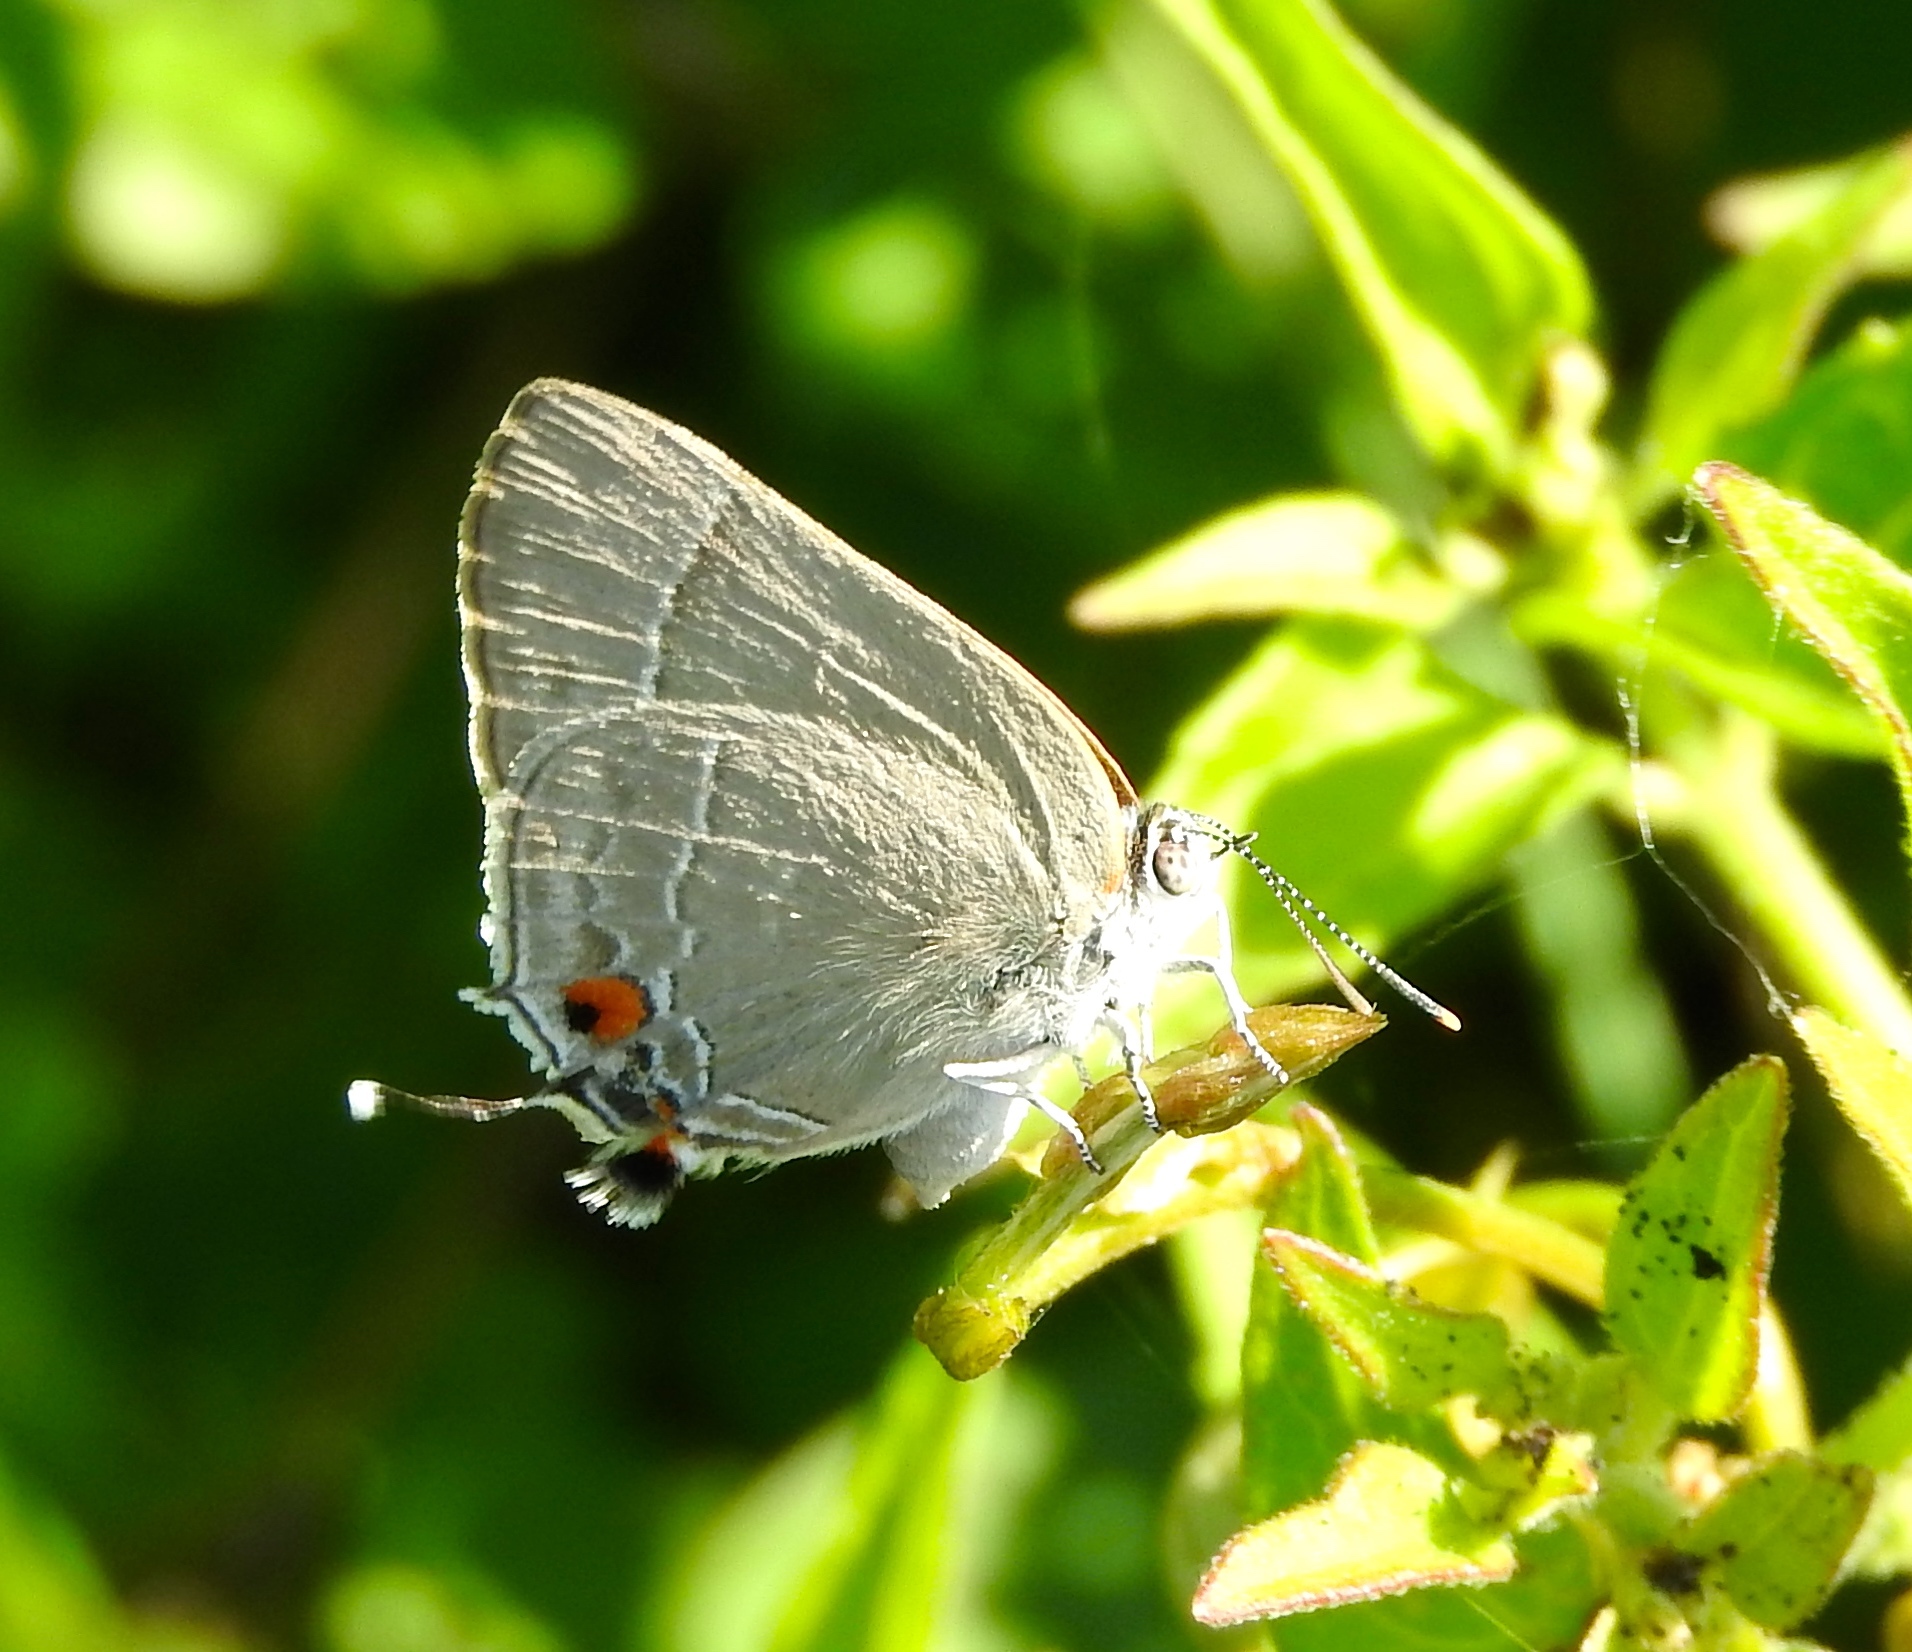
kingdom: Animalia
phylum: Arthropoda
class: Insecta
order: Lepidoptera
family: Lycaenidae
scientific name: Lycaenidae
